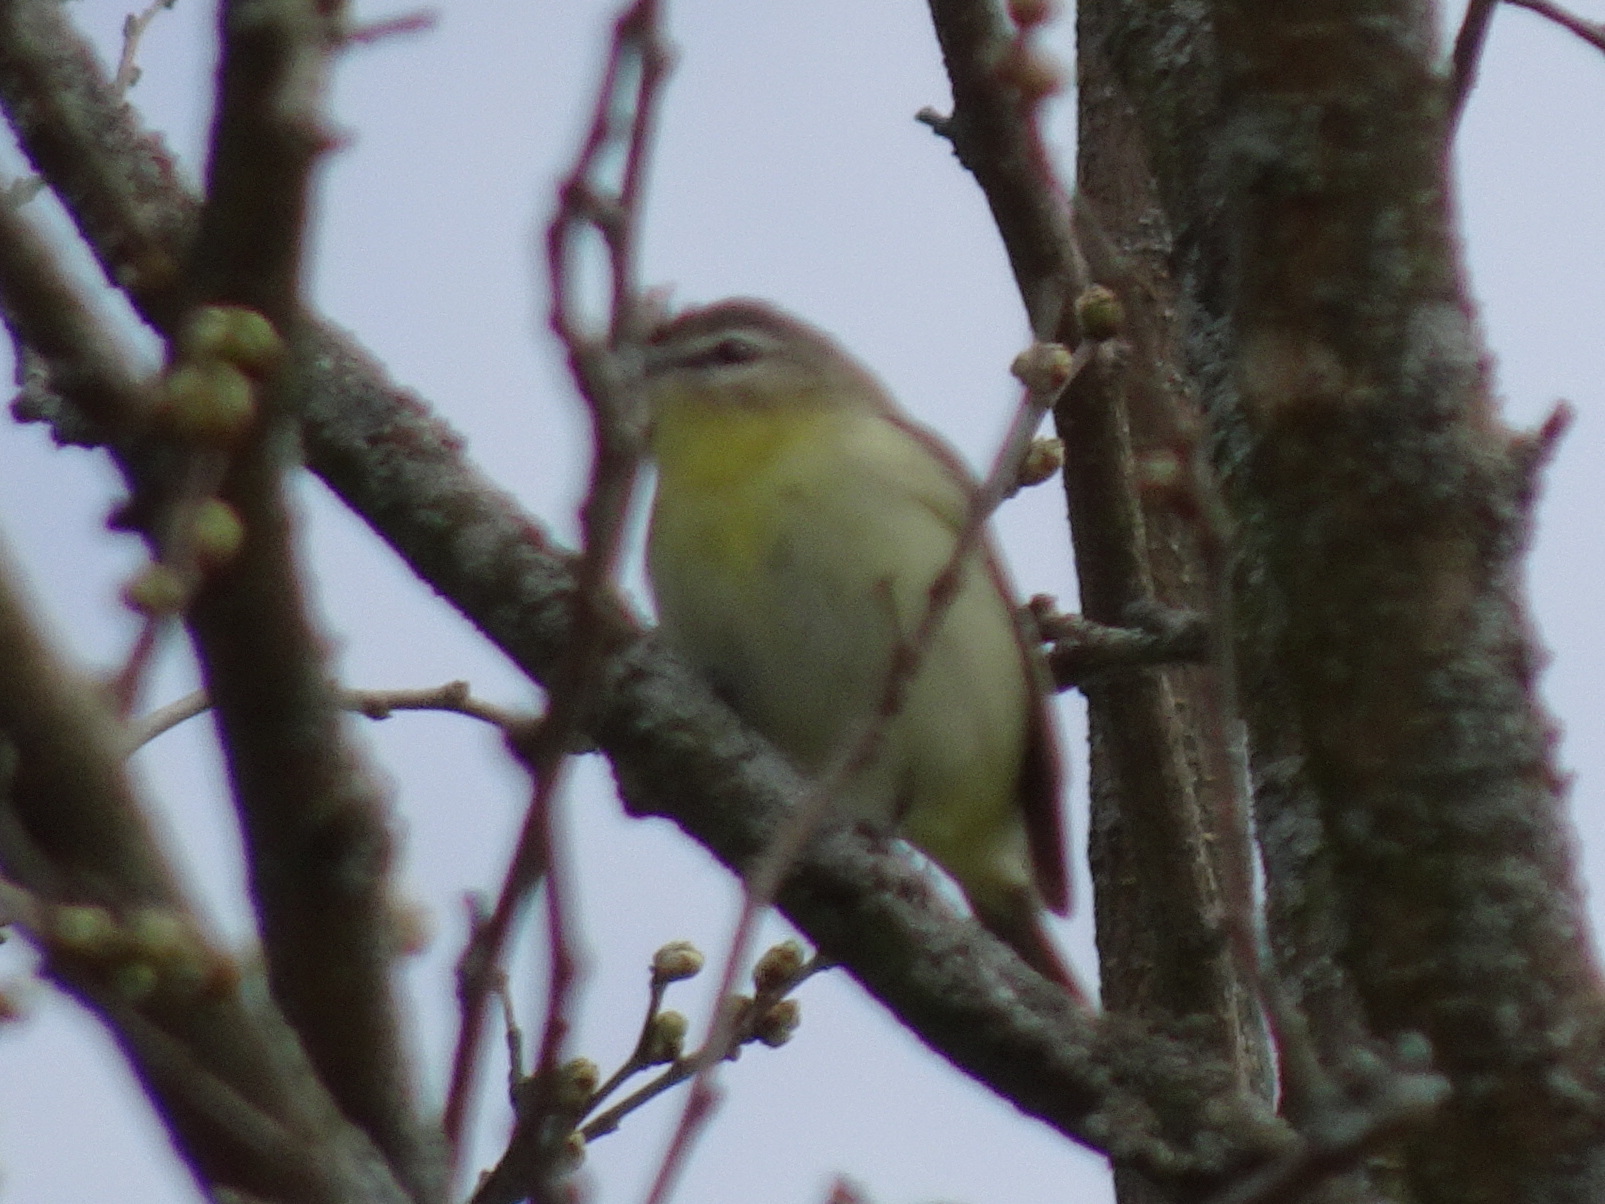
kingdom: Animalia
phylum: Chordata
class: Aves
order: Passeriformes
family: Vireonidae
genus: Vireo
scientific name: Vireo philadelphicus
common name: Philadelphia vireo
